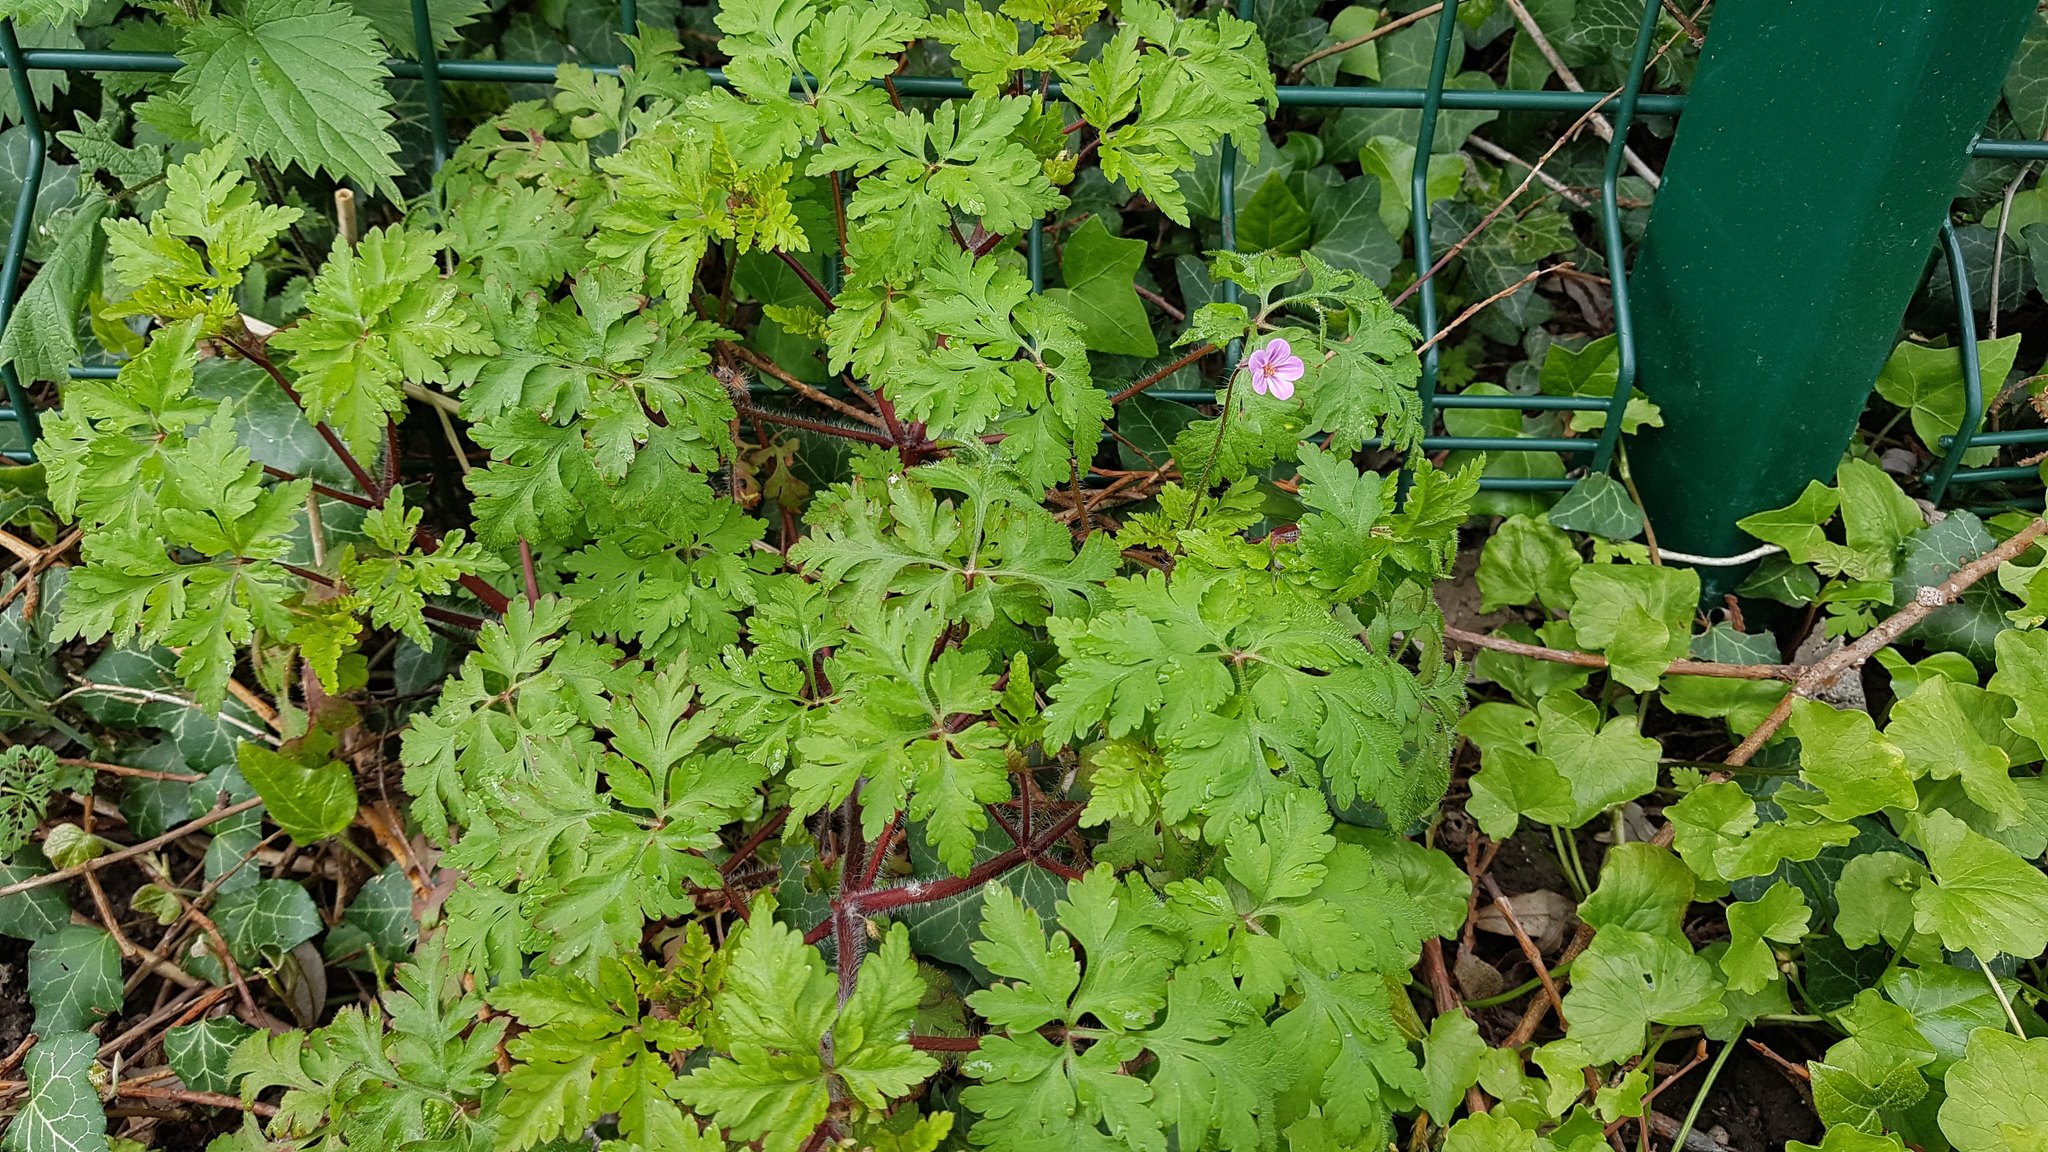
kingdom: Plantae
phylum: Tracheophyta
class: Magnoliopsida
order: Geraniales
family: Geraniaceae
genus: Geranium
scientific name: Geranium robertianum
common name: Herb-robert
